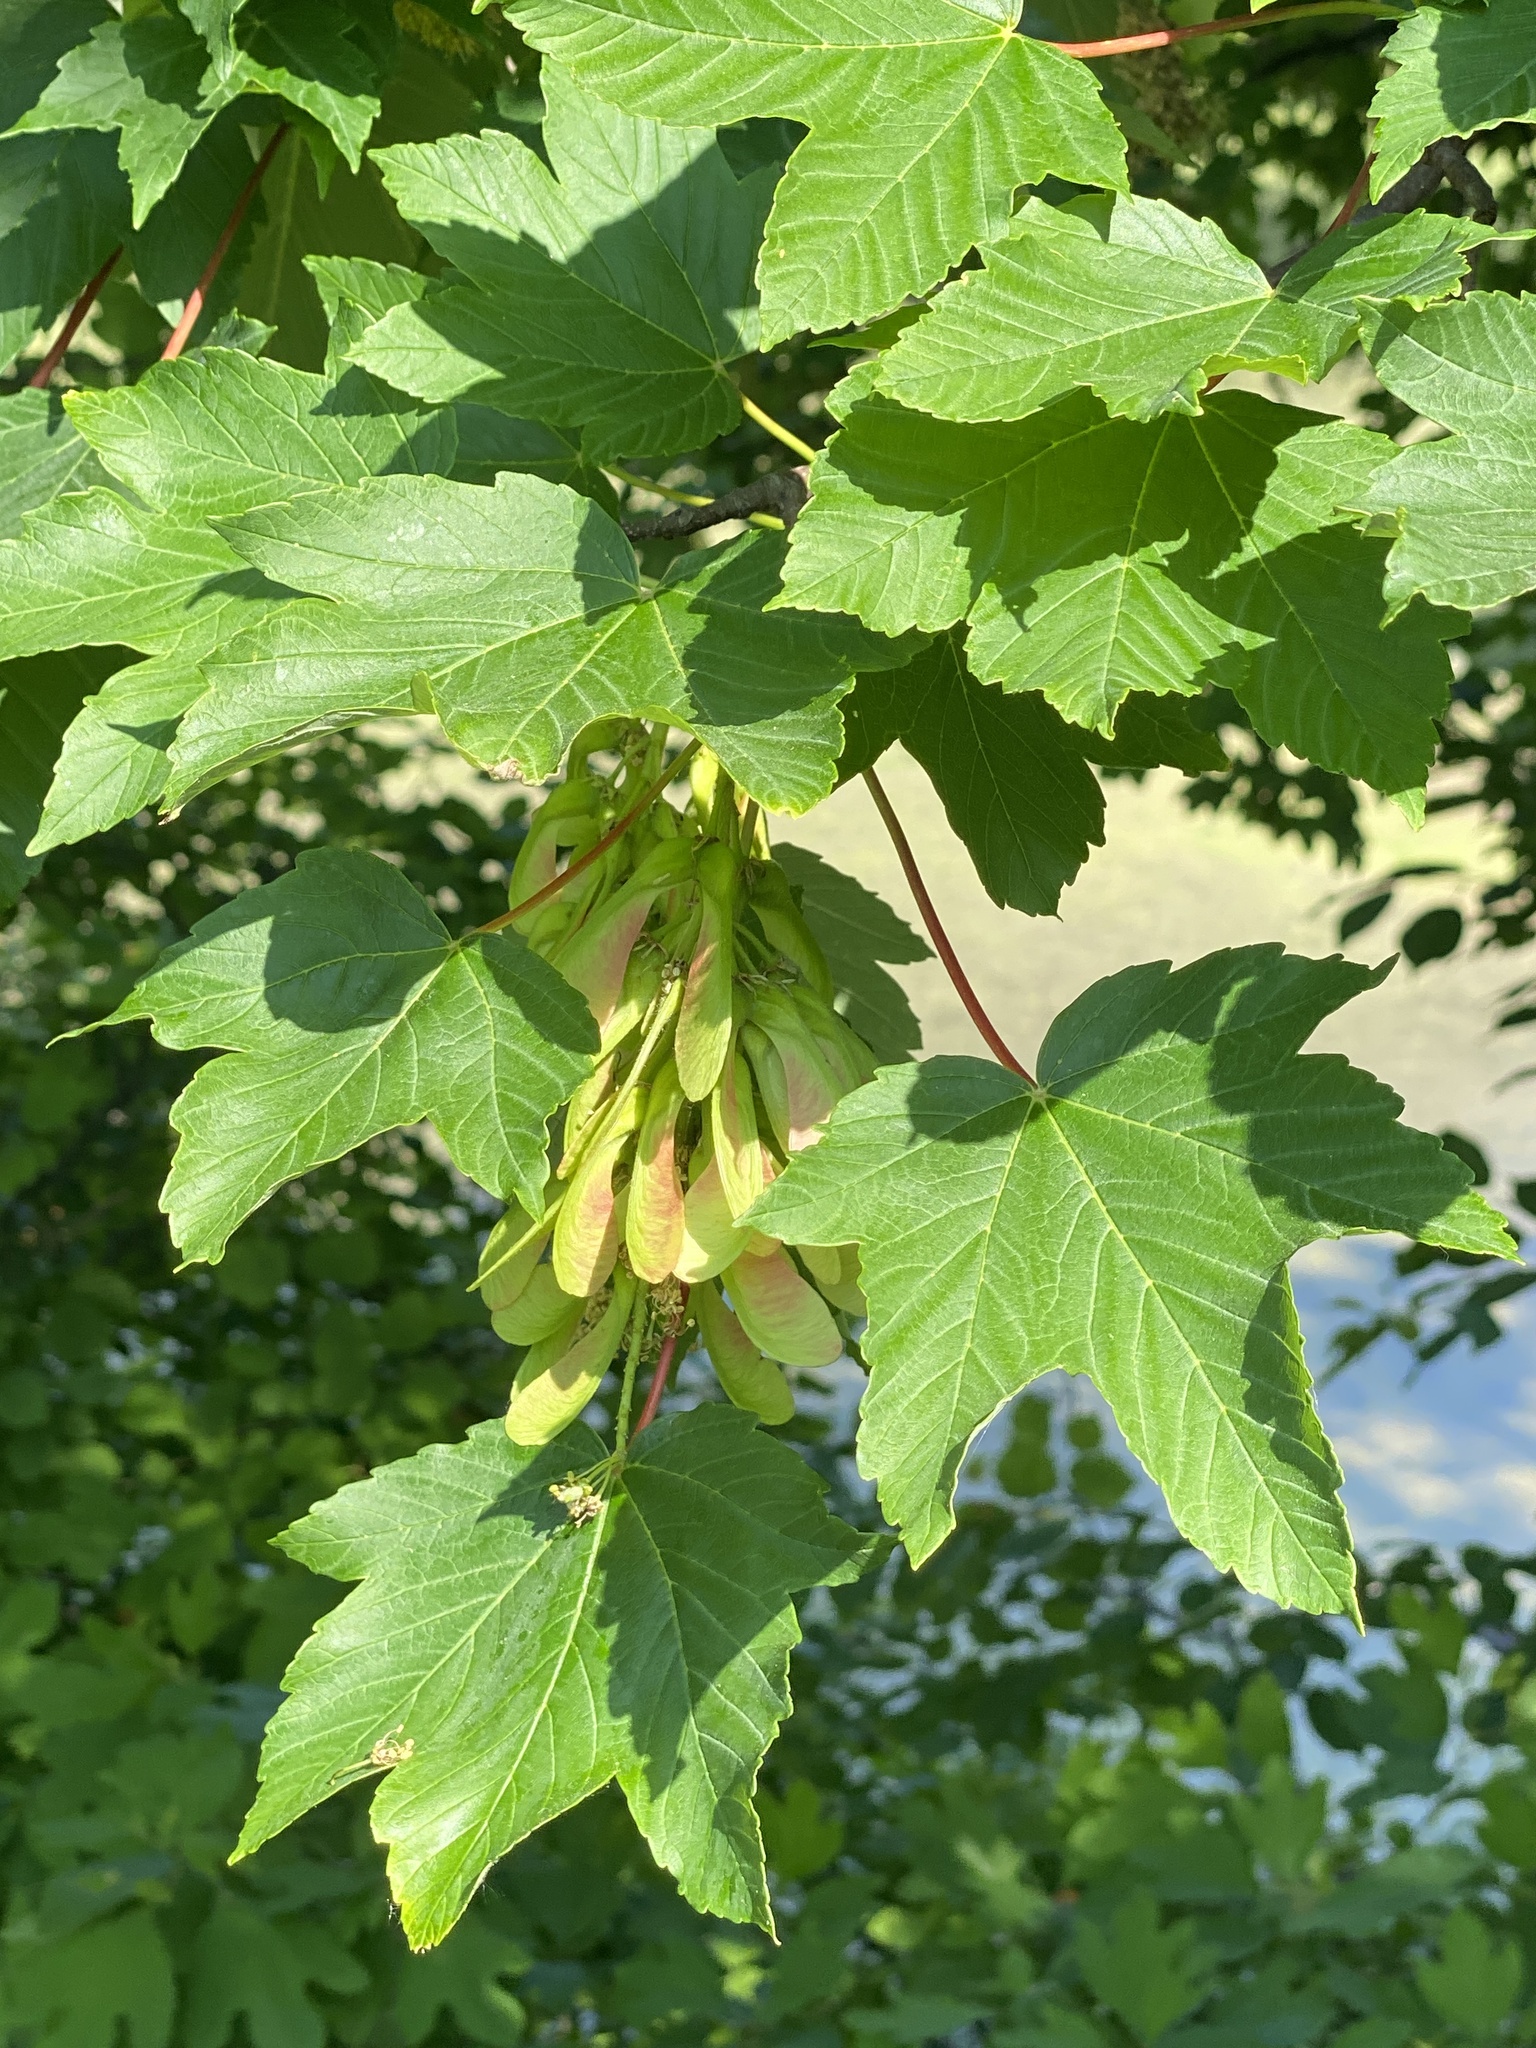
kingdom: Plantae
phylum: Tracheophyta
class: Magnoliopsida
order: Sapindales
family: Sapindaceae
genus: Acer
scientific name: Acer pseudoplatanus
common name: Sycamore
